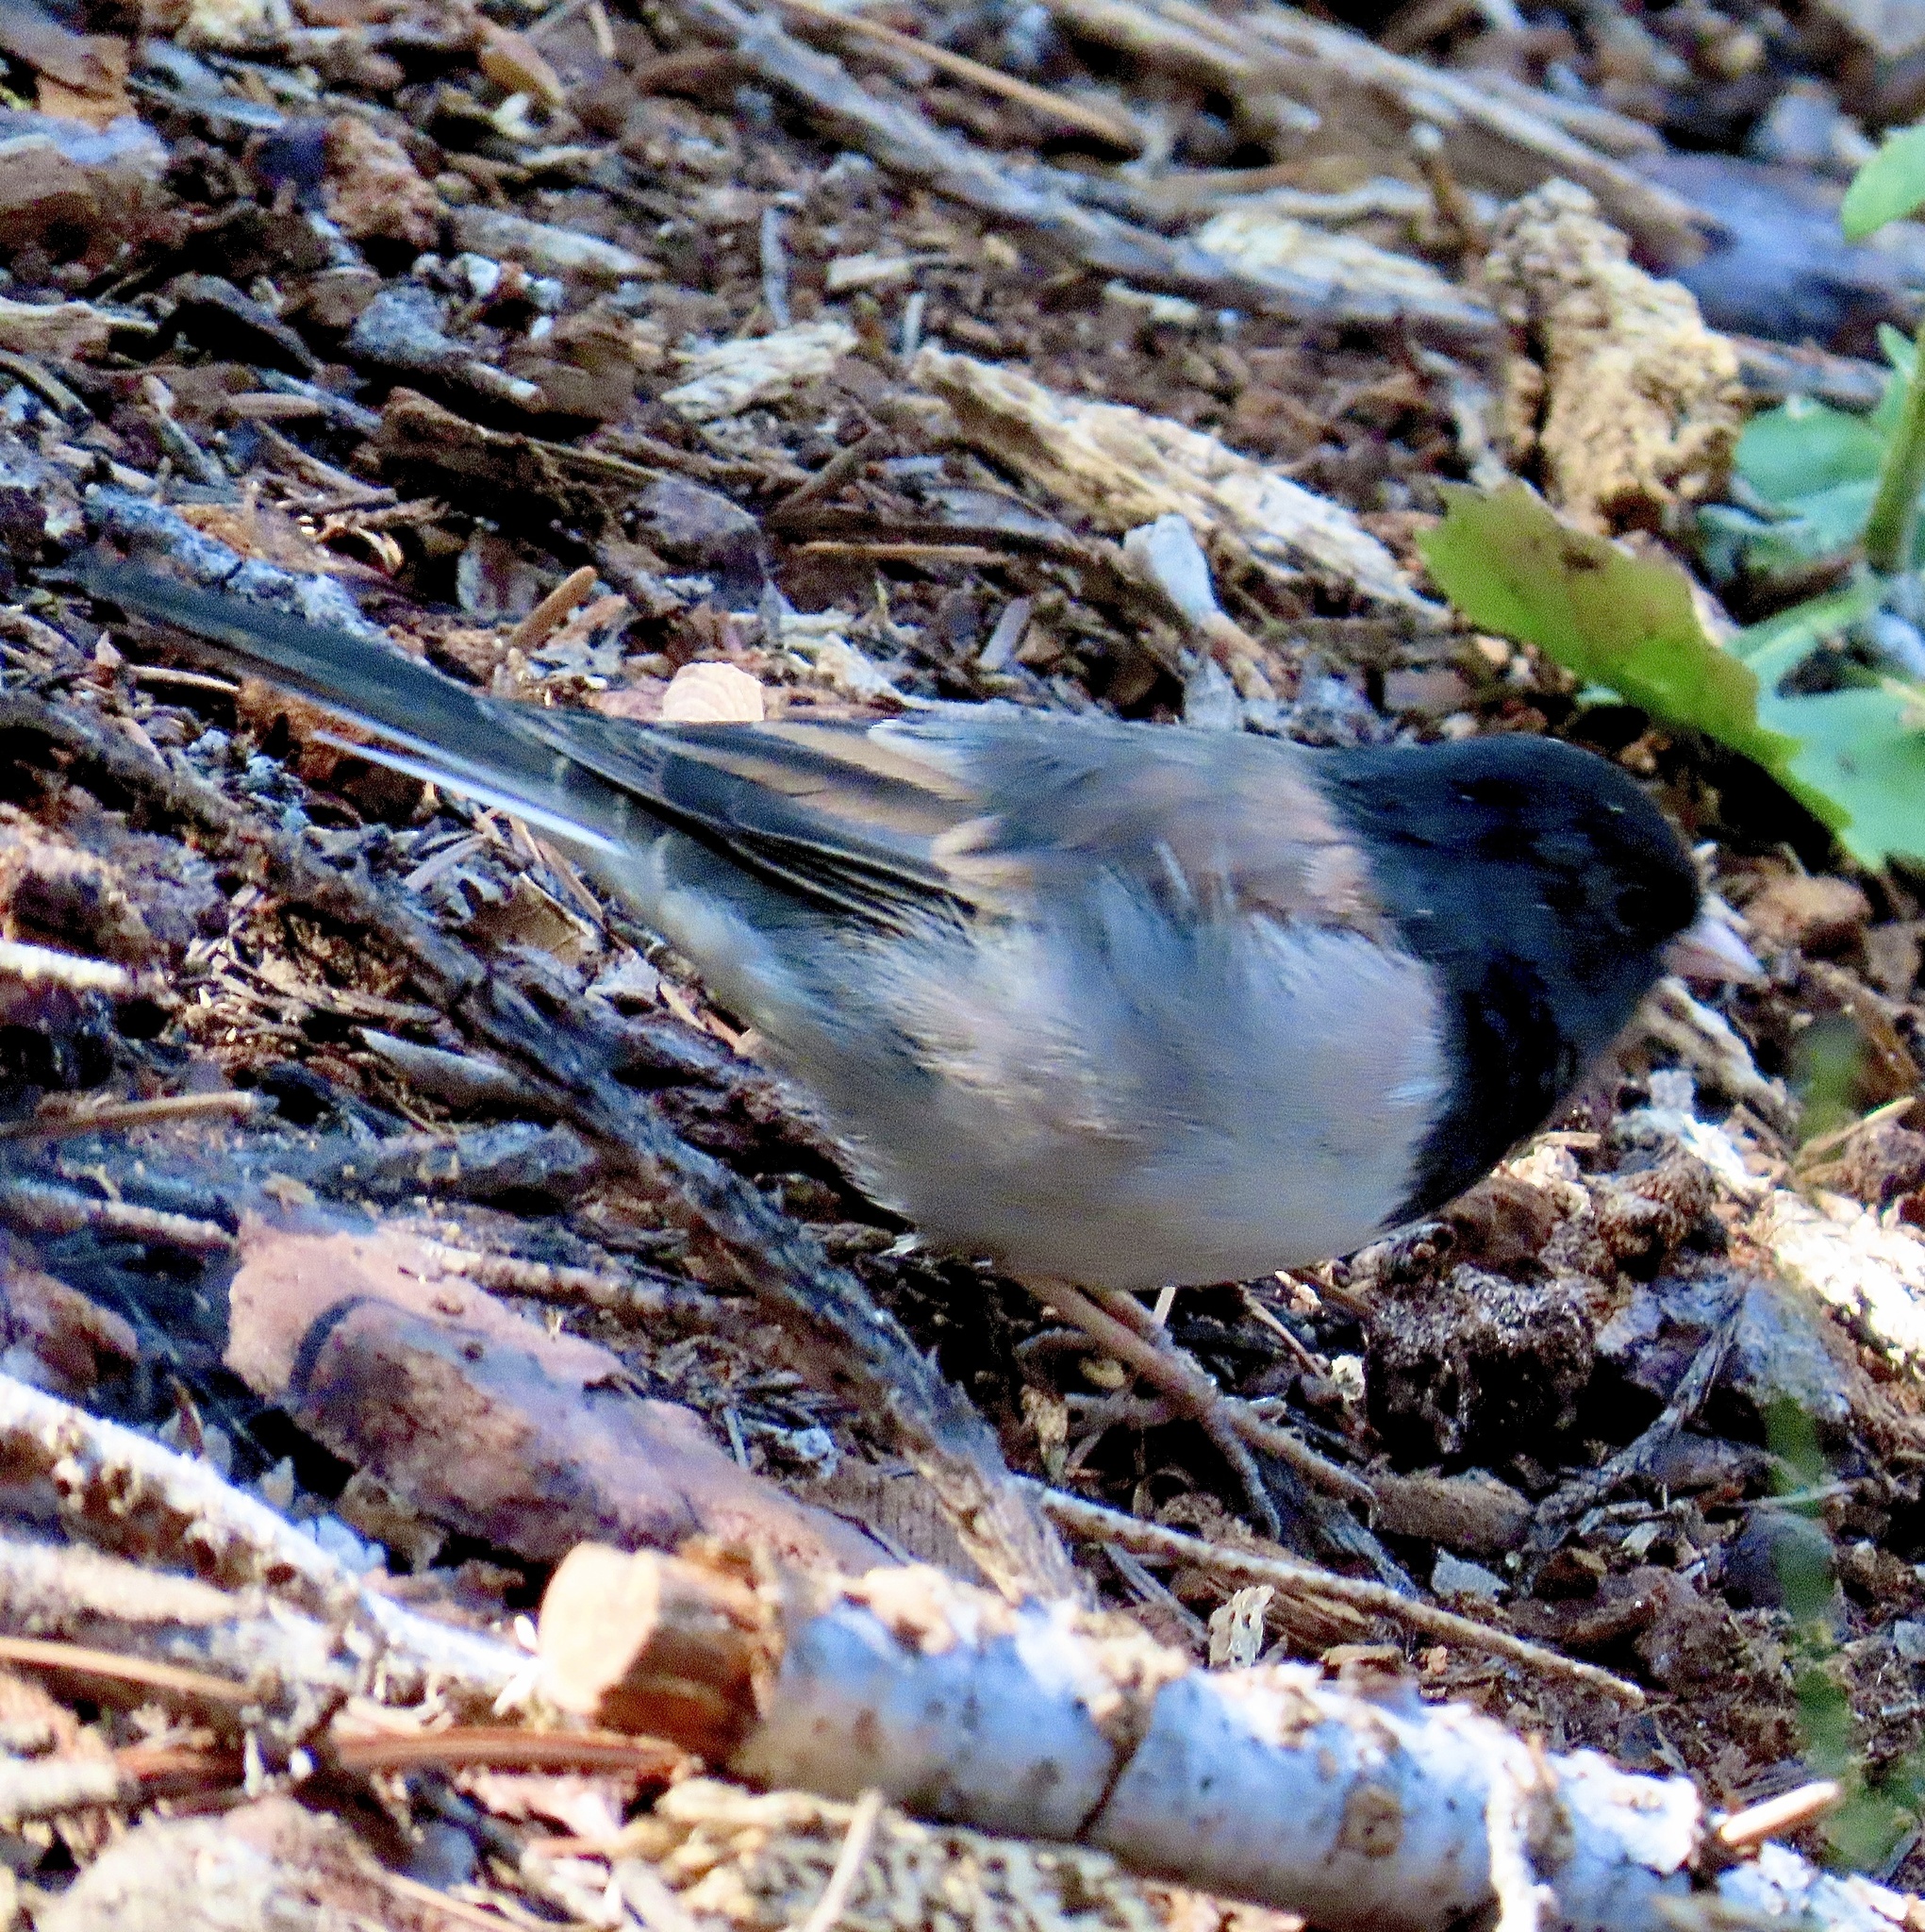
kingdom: Animalia
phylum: Chordata
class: Aves
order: Passeriformes
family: Passerellidae
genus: Junco
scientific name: Junco hyemalis
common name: Dark-eyed junco
